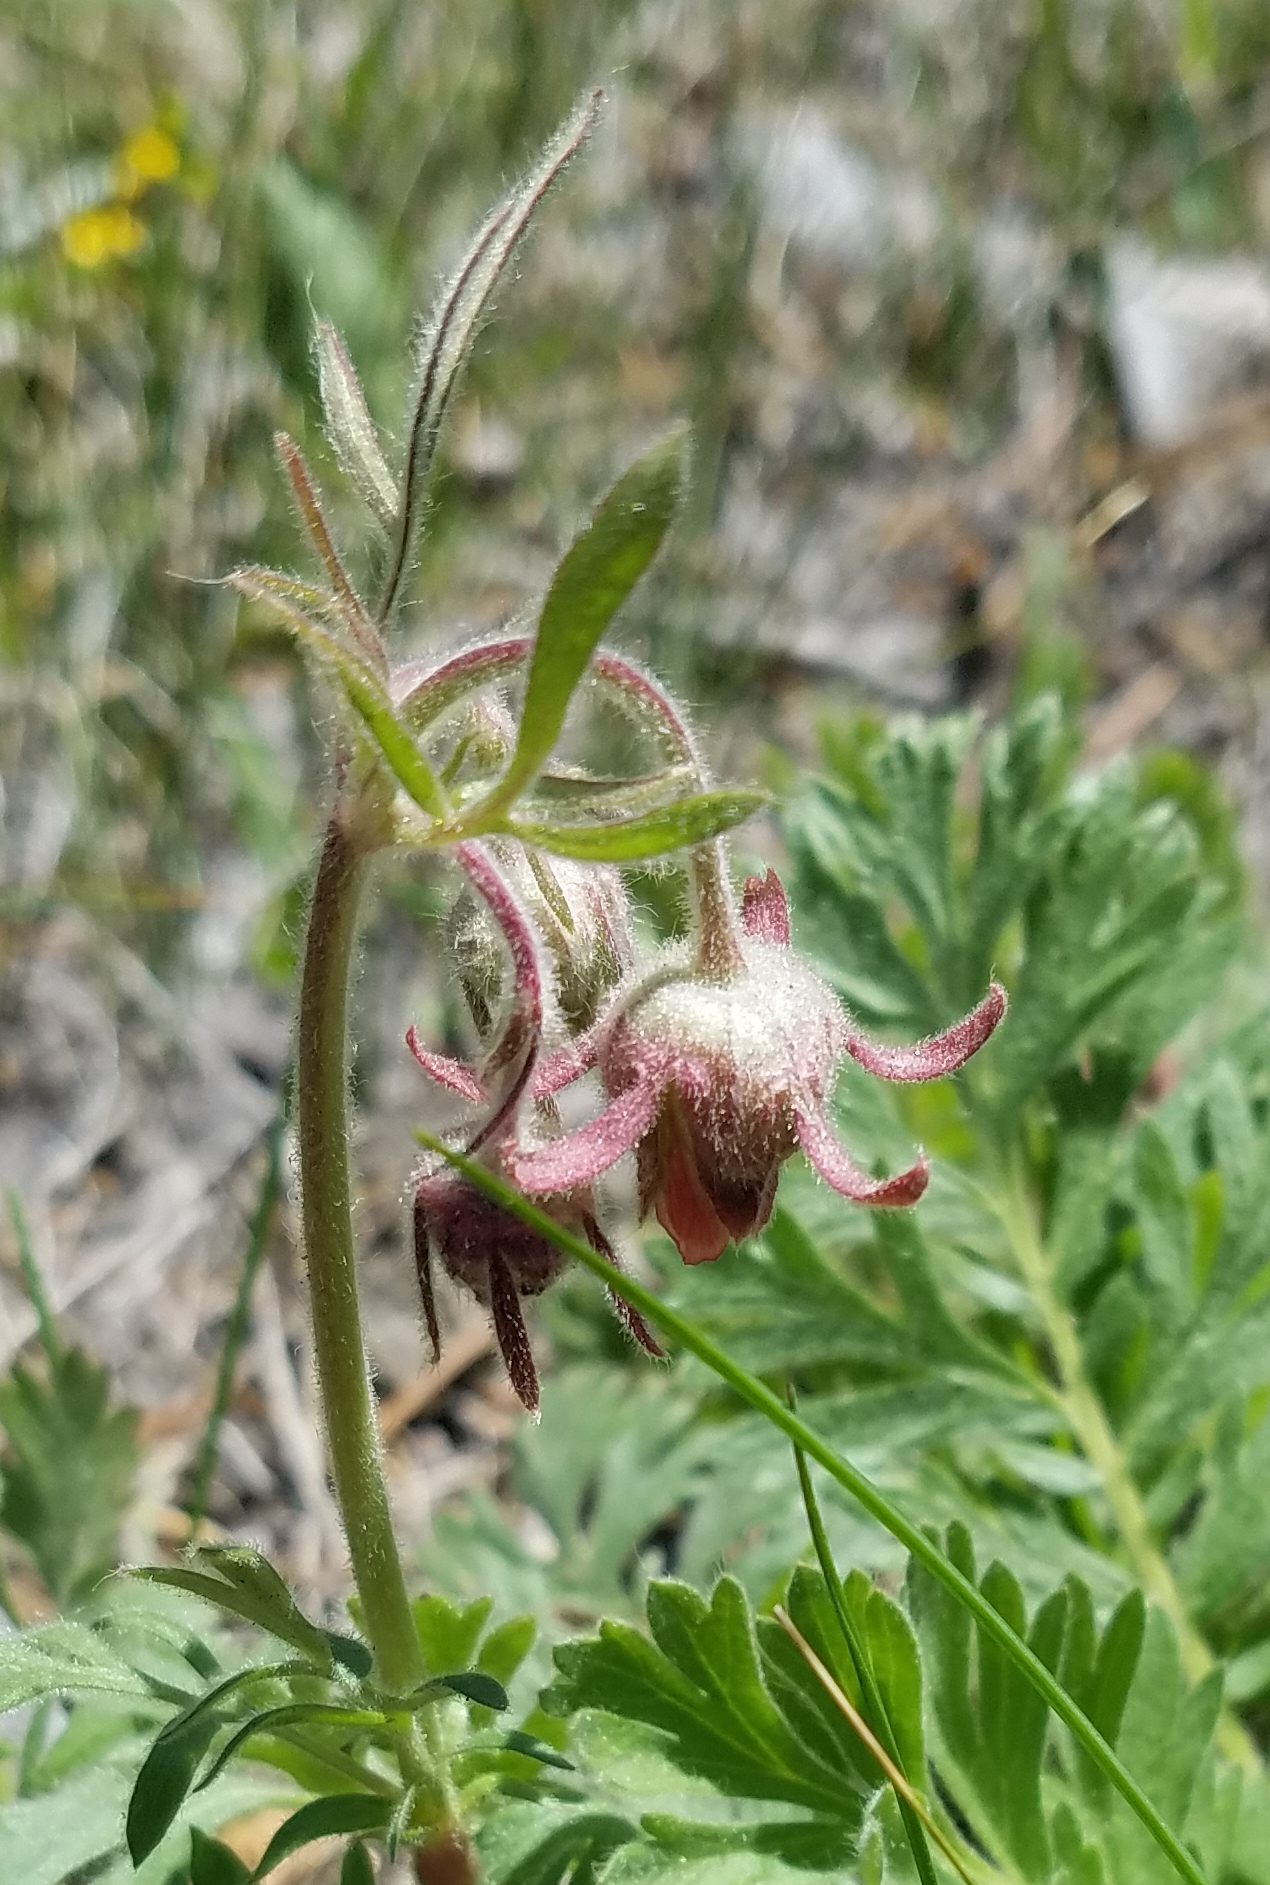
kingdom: Plantae
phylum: Tracheophyta
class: Magnoliopsida
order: Rosales
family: Rosaceae
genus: Geum
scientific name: Geum triflorum
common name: Old man's whiskers
